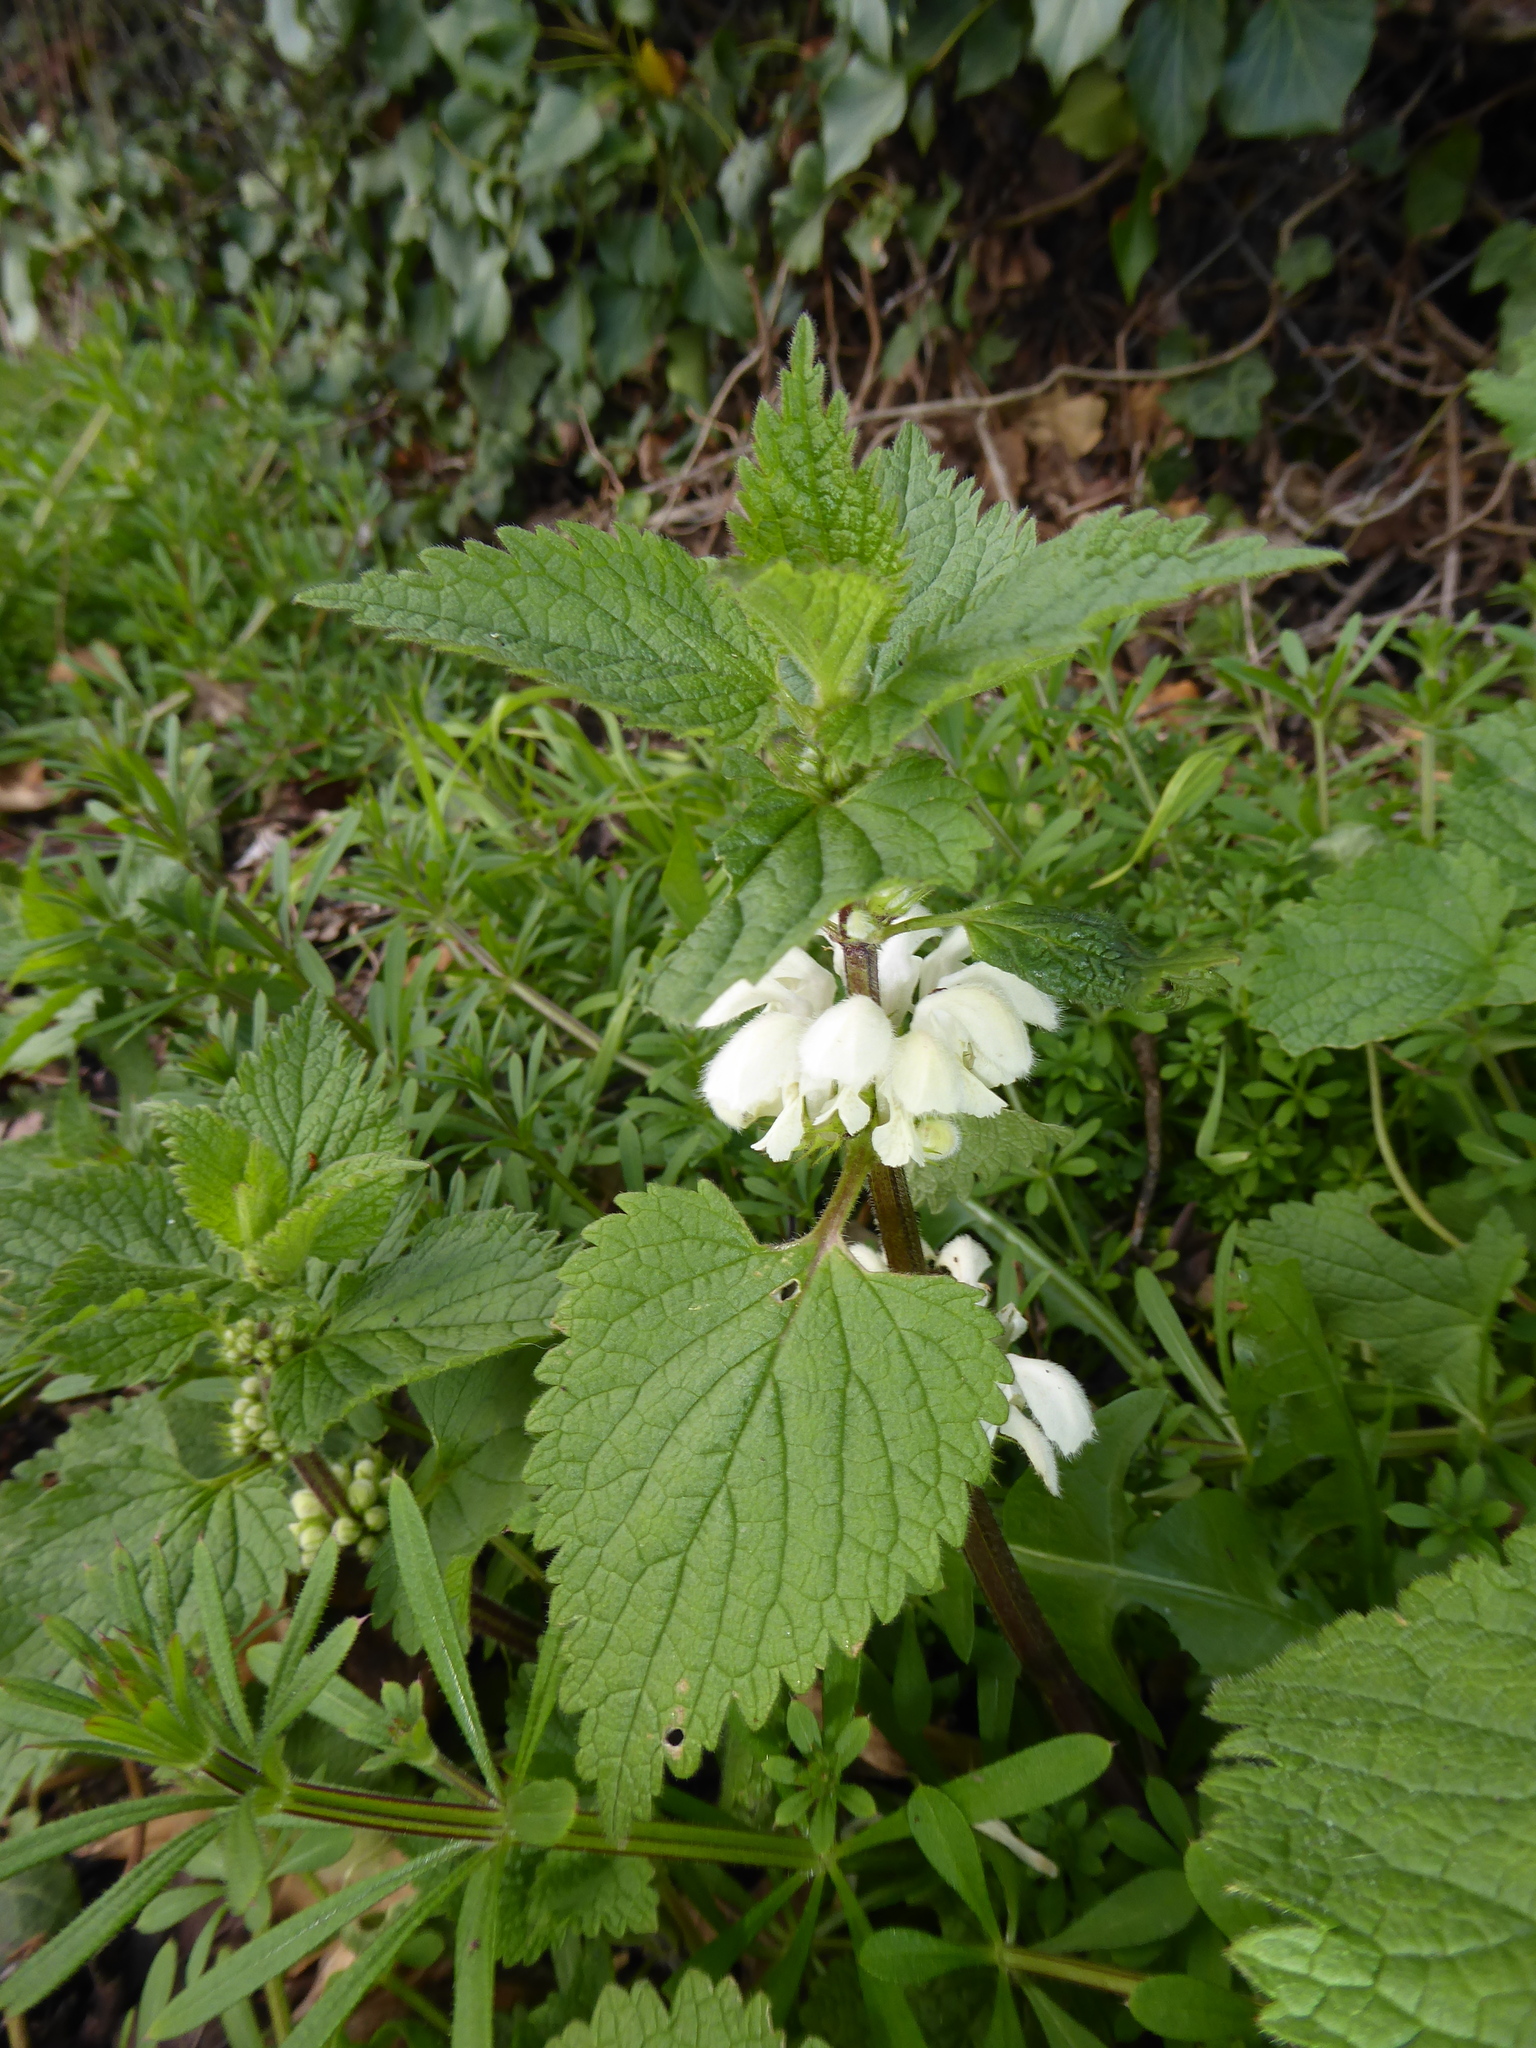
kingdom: Plantae
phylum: Tracheophyta
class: Magnoliopsida
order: Lamiales
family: Lamiaceae
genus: Lamium
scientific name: Lamium album
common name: White dead-nettle
